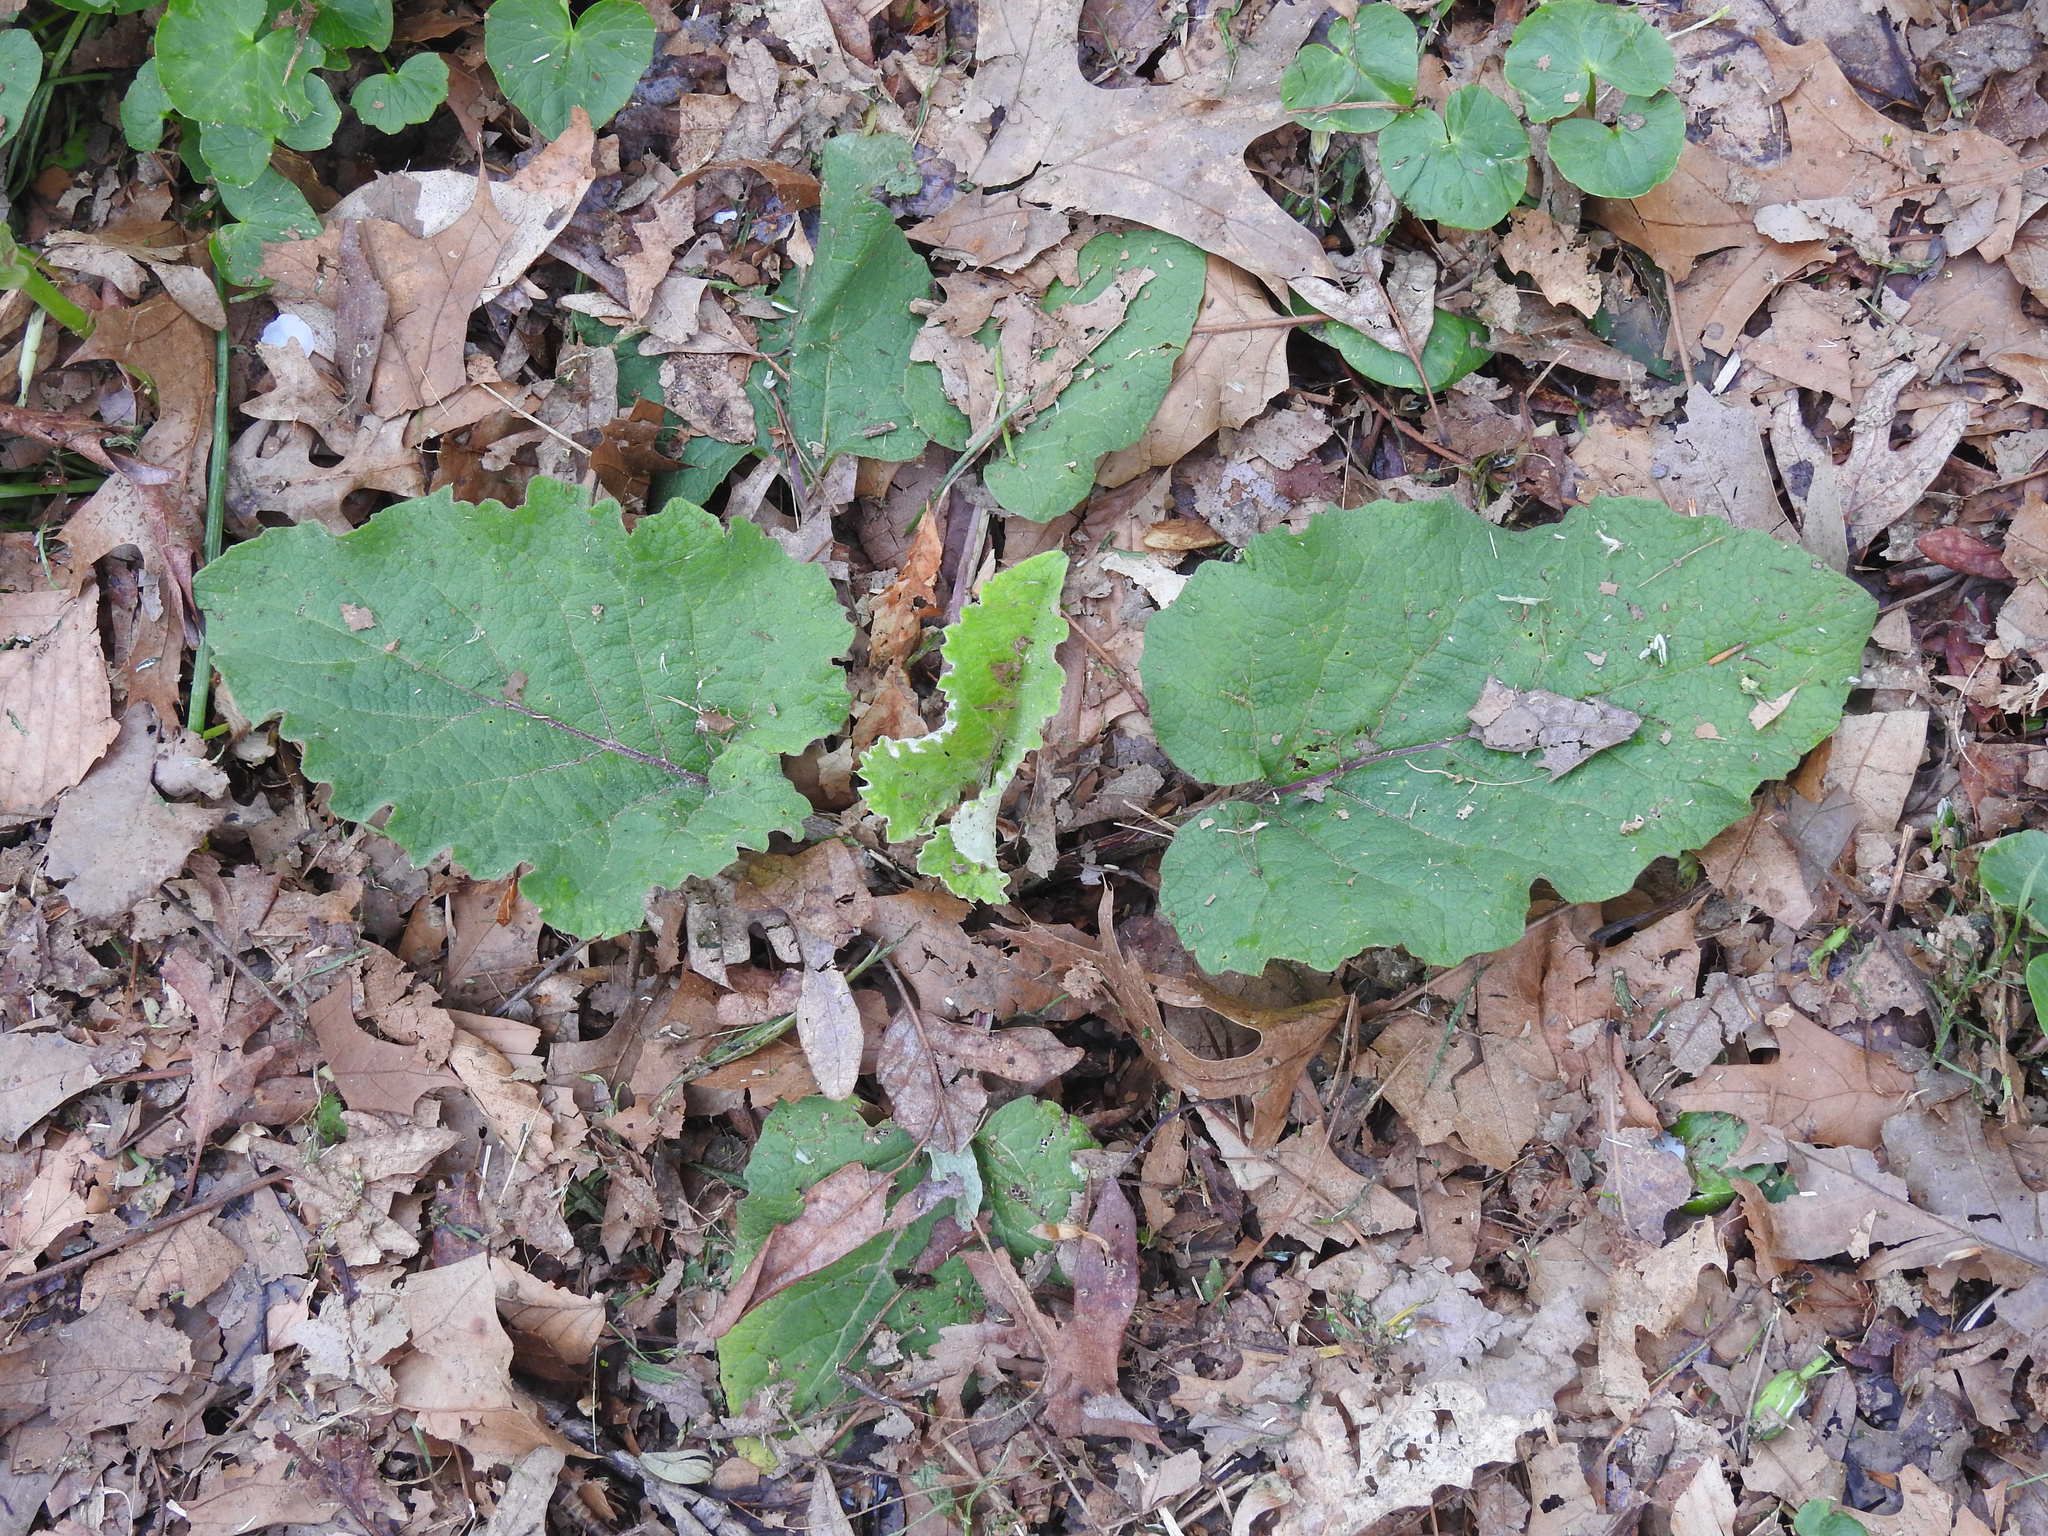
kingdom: Plantae
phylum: Tracheophyta
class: Magnoliopsida
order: Asterales
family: Asteraceae
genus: Arctium
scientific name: Arctium
